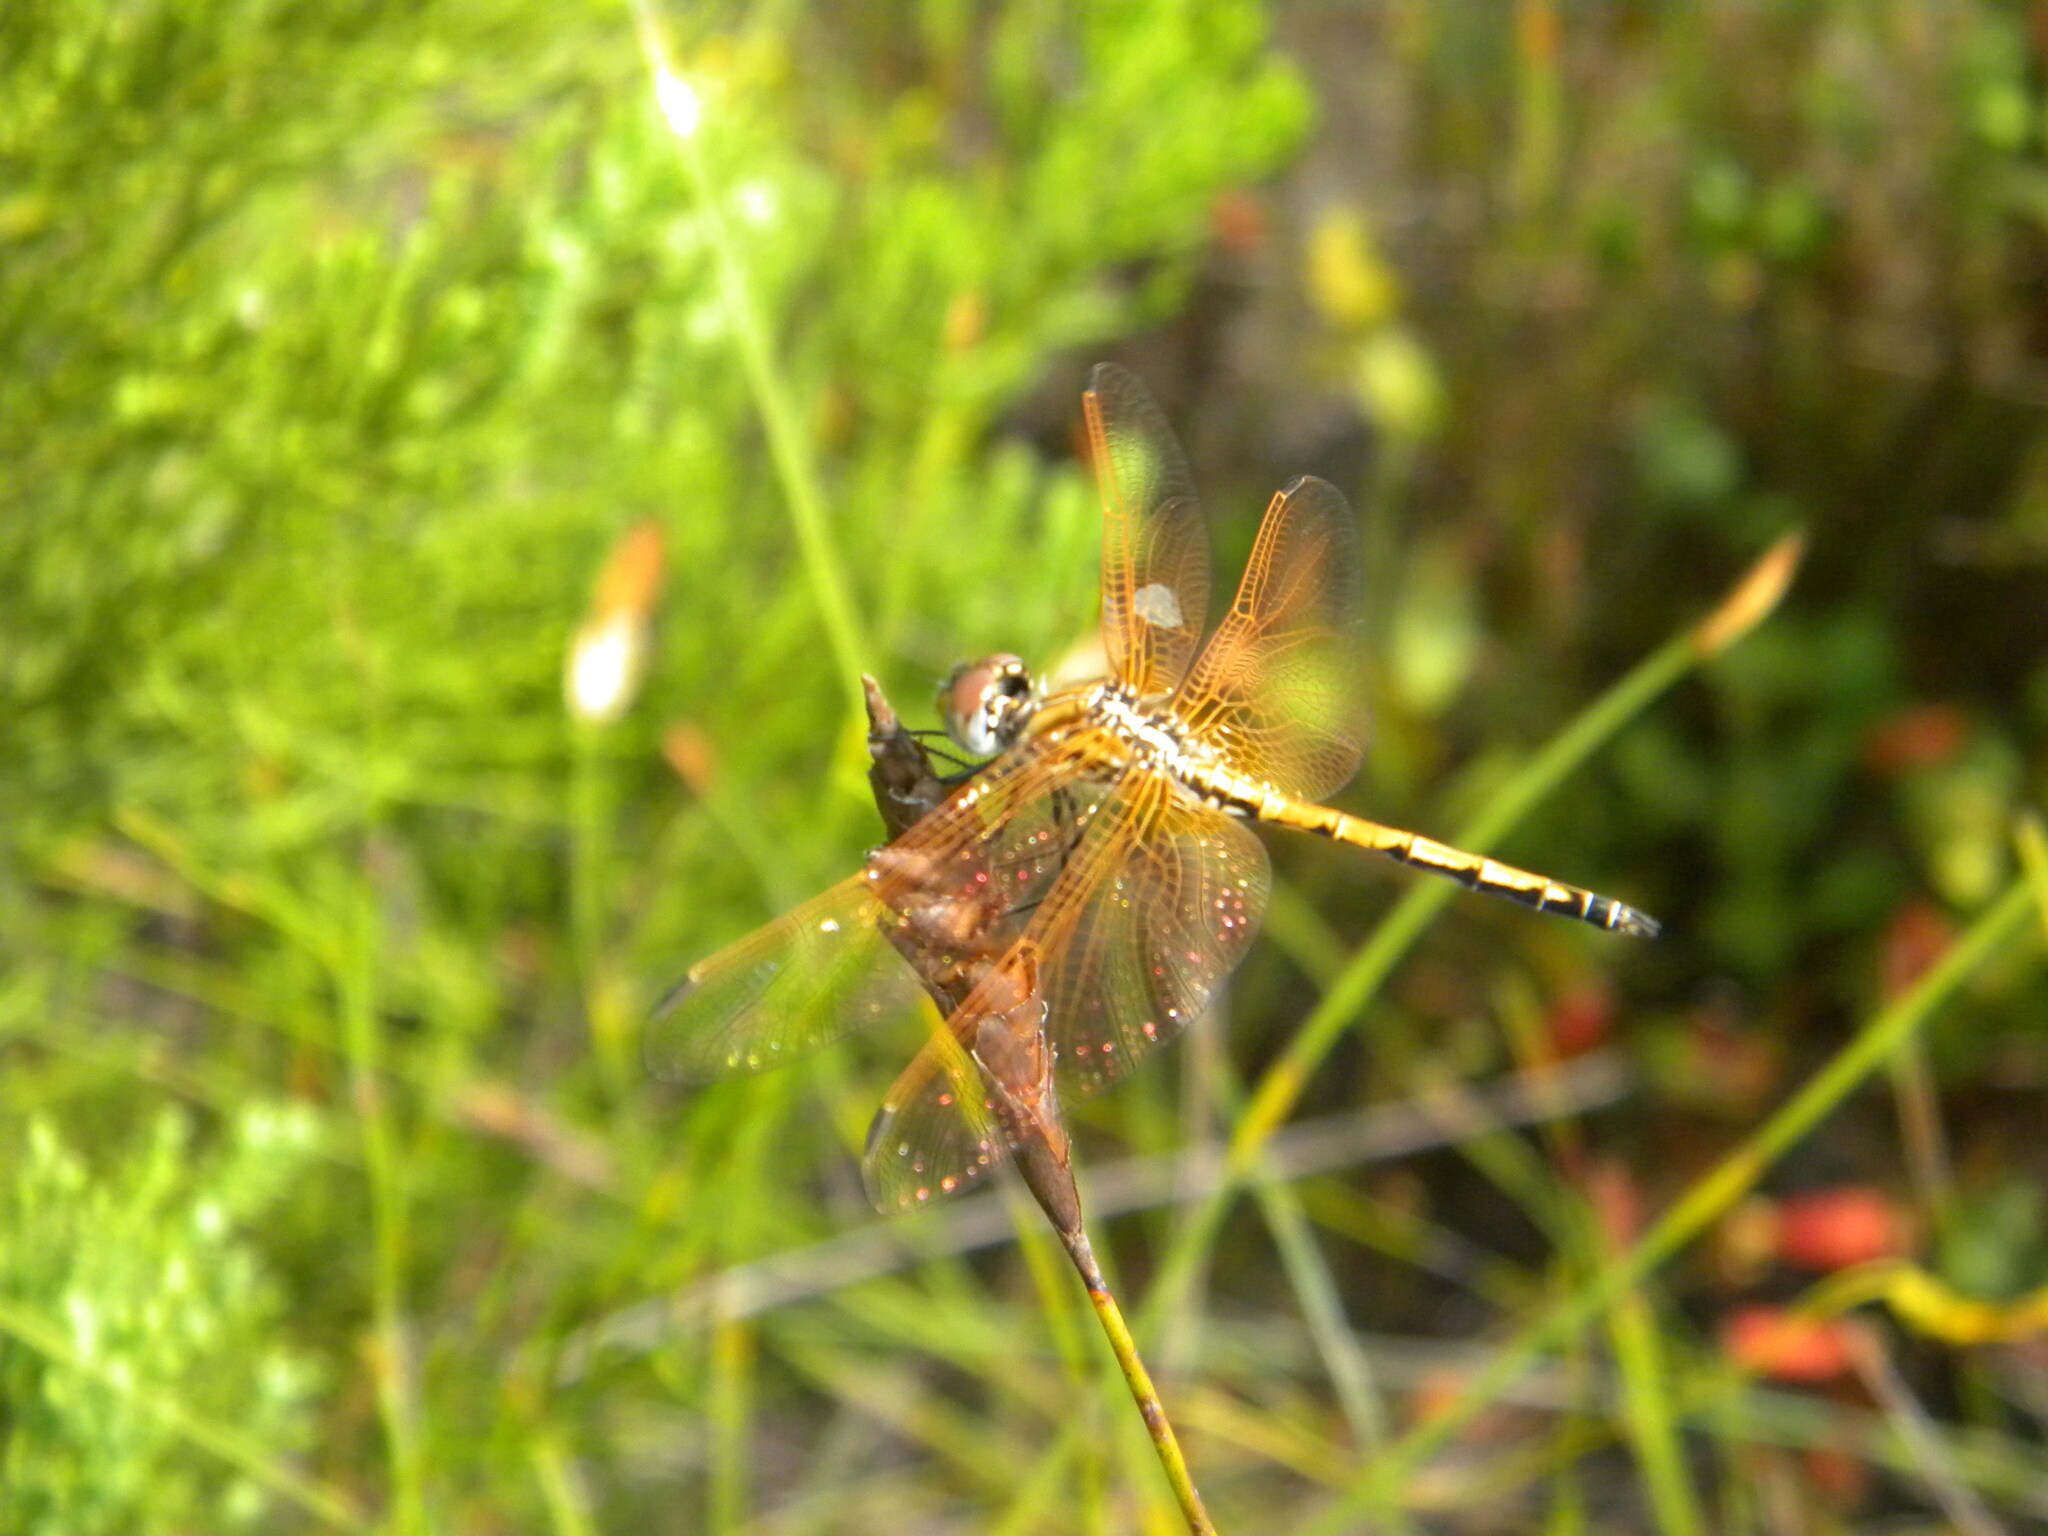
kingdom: Animalia
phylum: Arthropoda
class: Insecta
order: Odonata
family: Libellulidae
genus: Trithemis
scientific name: Trithemis arteriosa
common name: Red-veined dropwing
